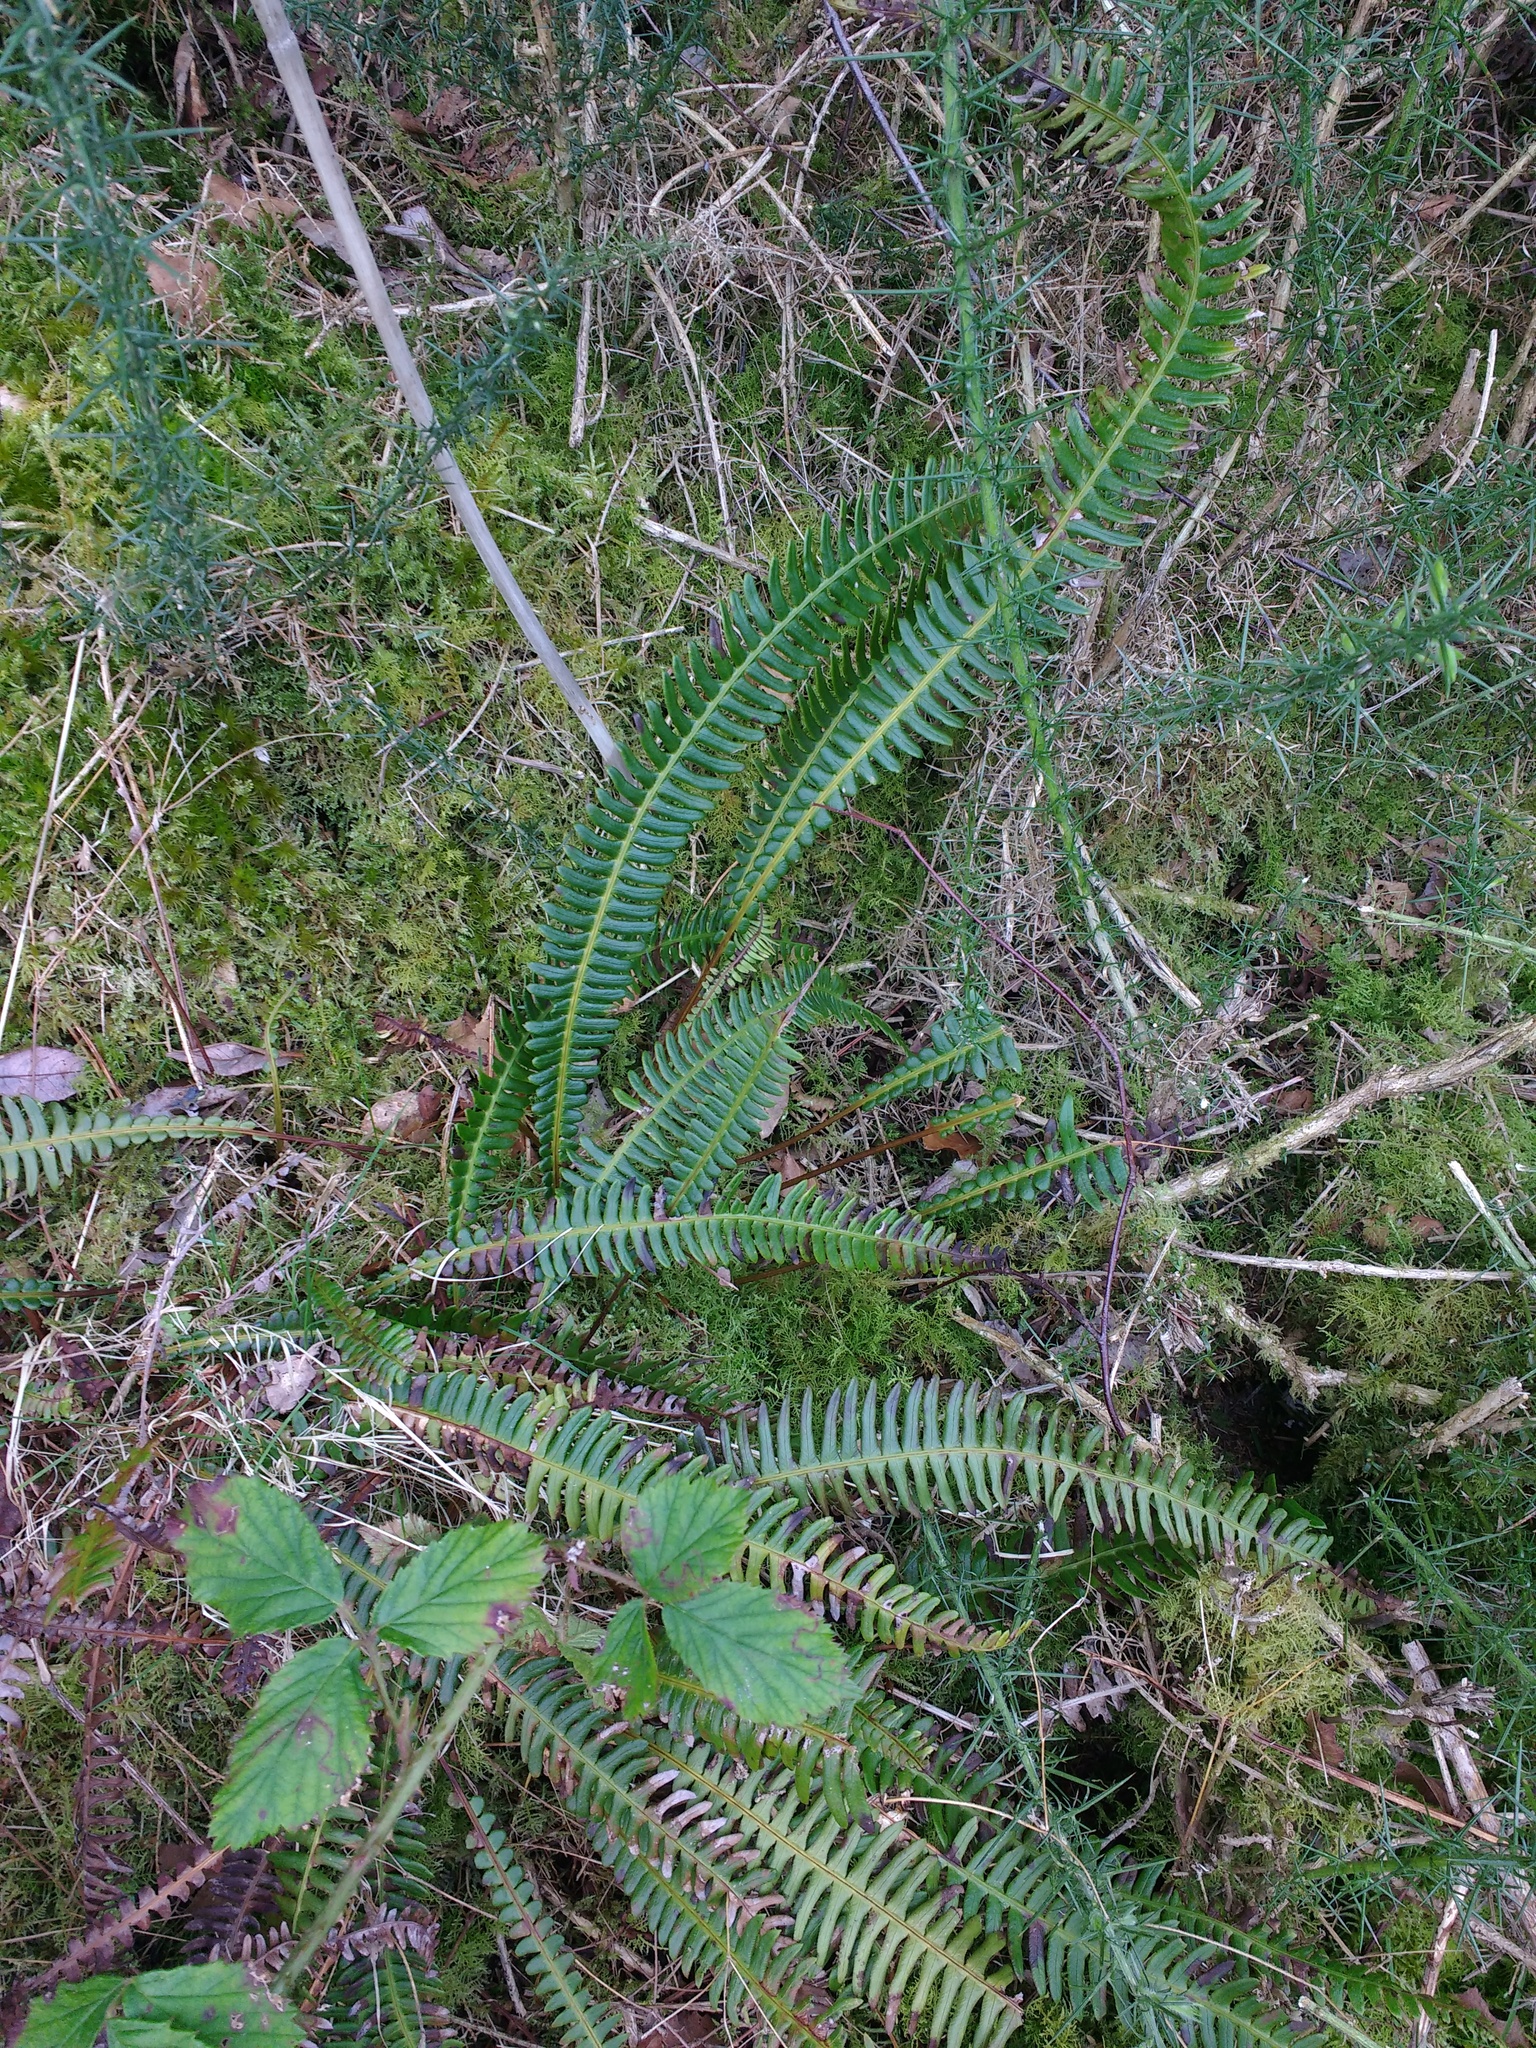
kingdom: Plantae
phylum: Tracheophyta
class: Polypodiopsida
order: Polypodiales
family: Blechnaceae
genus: Struthiopteris
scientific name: Struthiopteris spicant
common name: Deer fern
